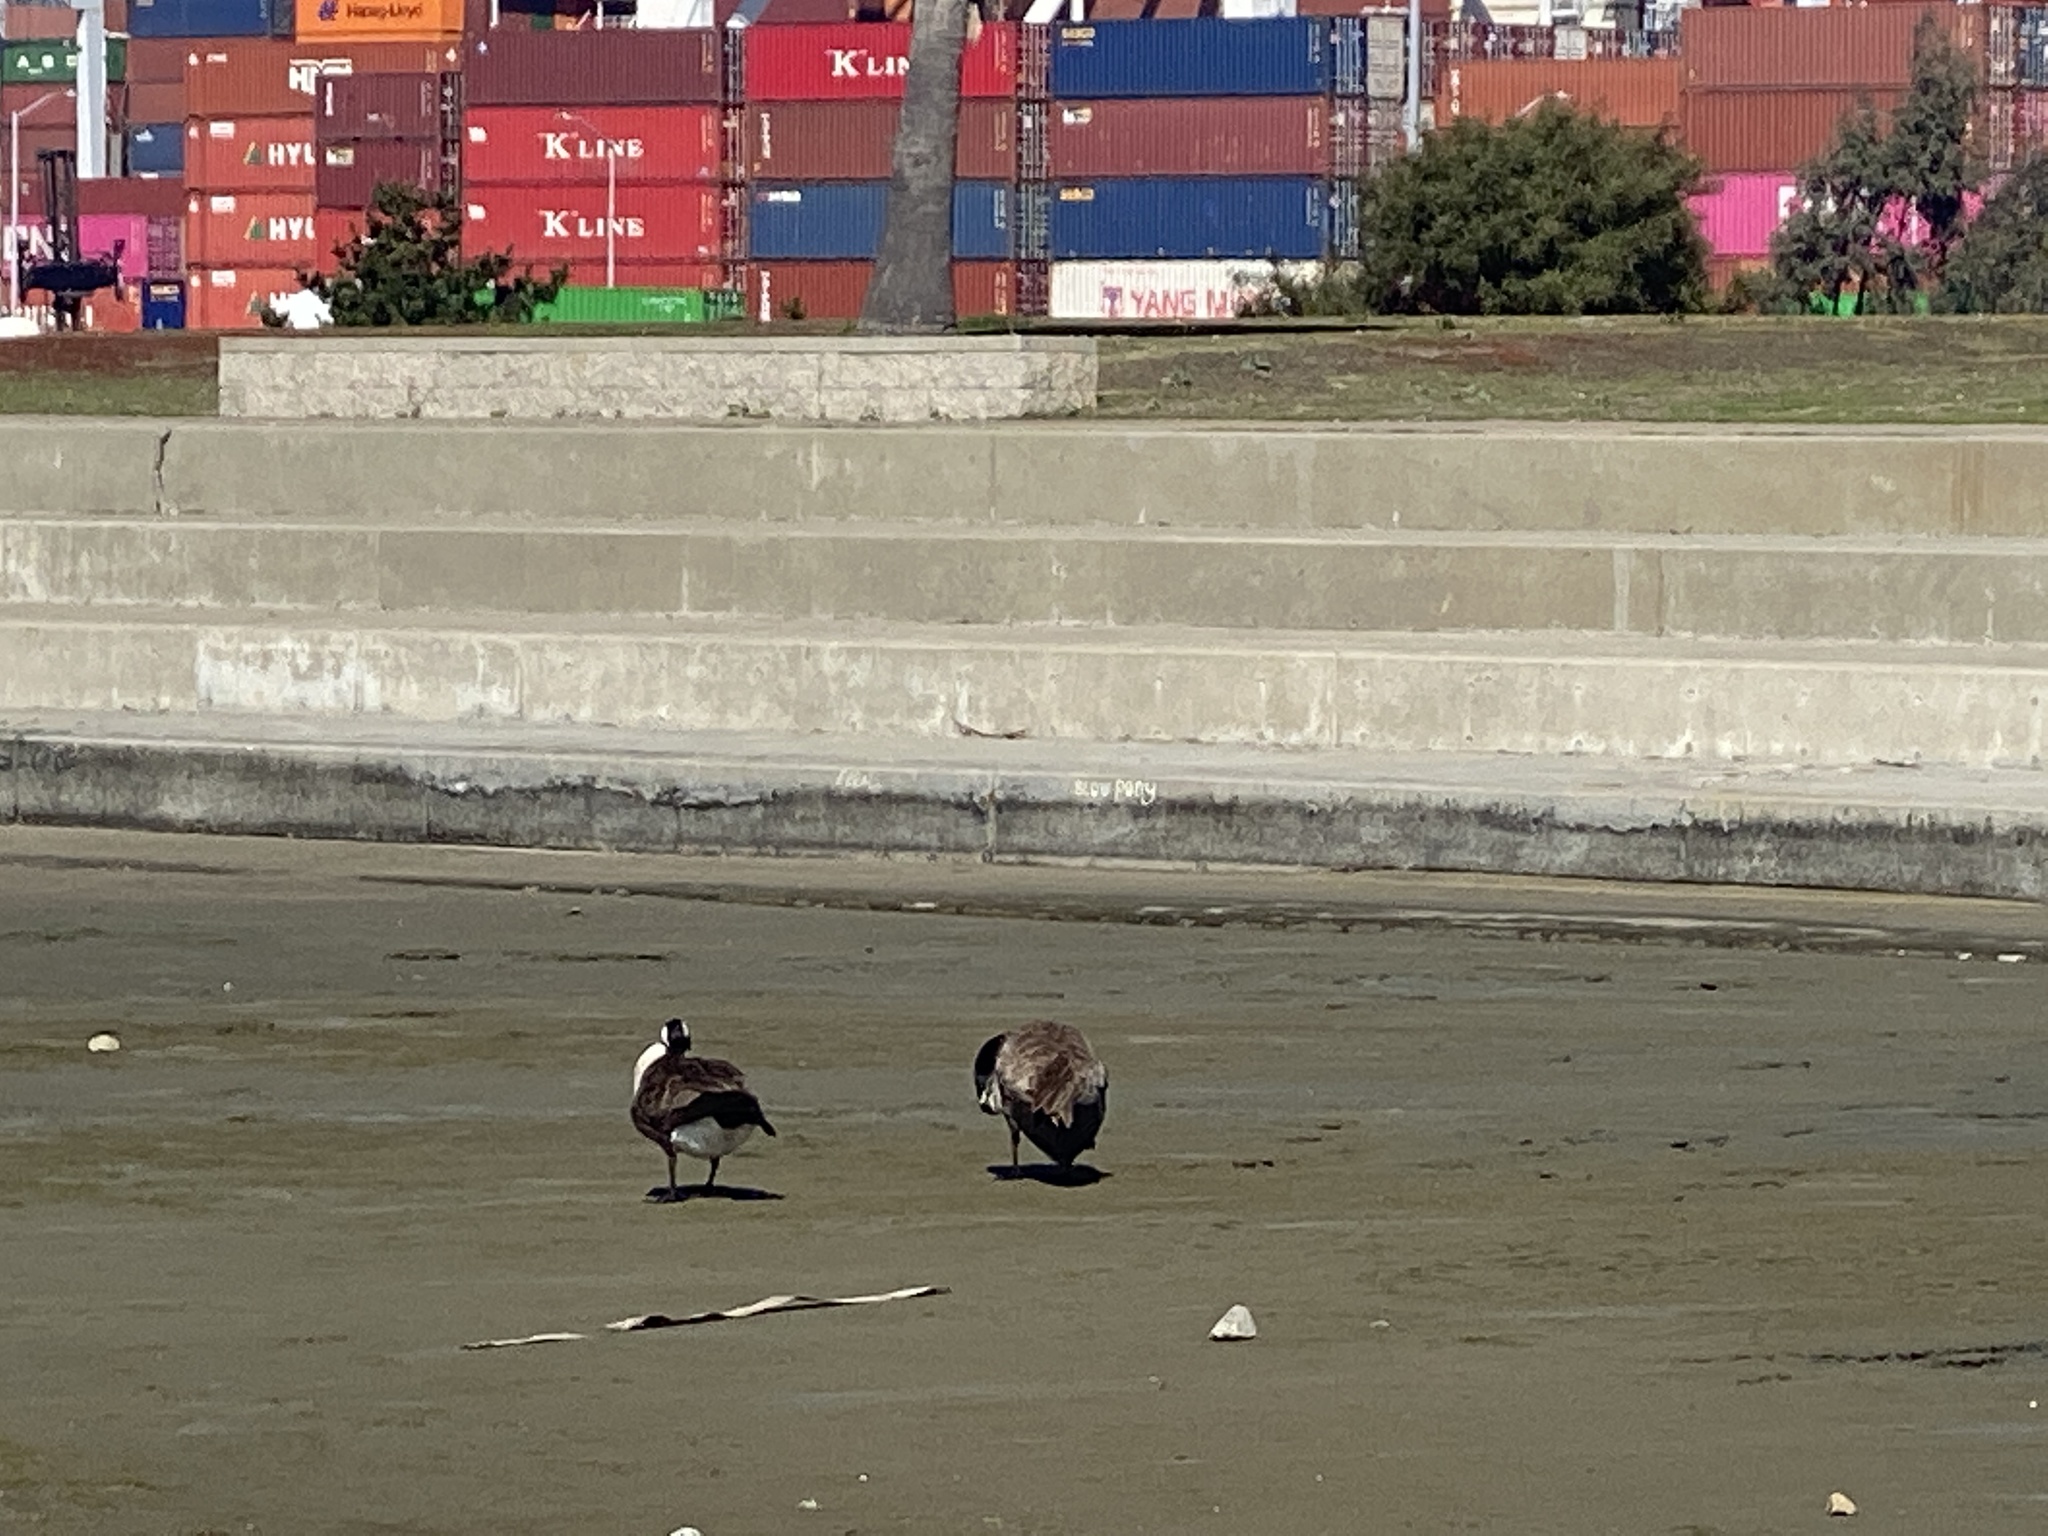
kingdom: Animalia
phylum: Chordata
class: Aves
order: Anseriformes
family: Anatidae
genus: Branta
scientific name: Branta canadensis
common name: Canada goose
